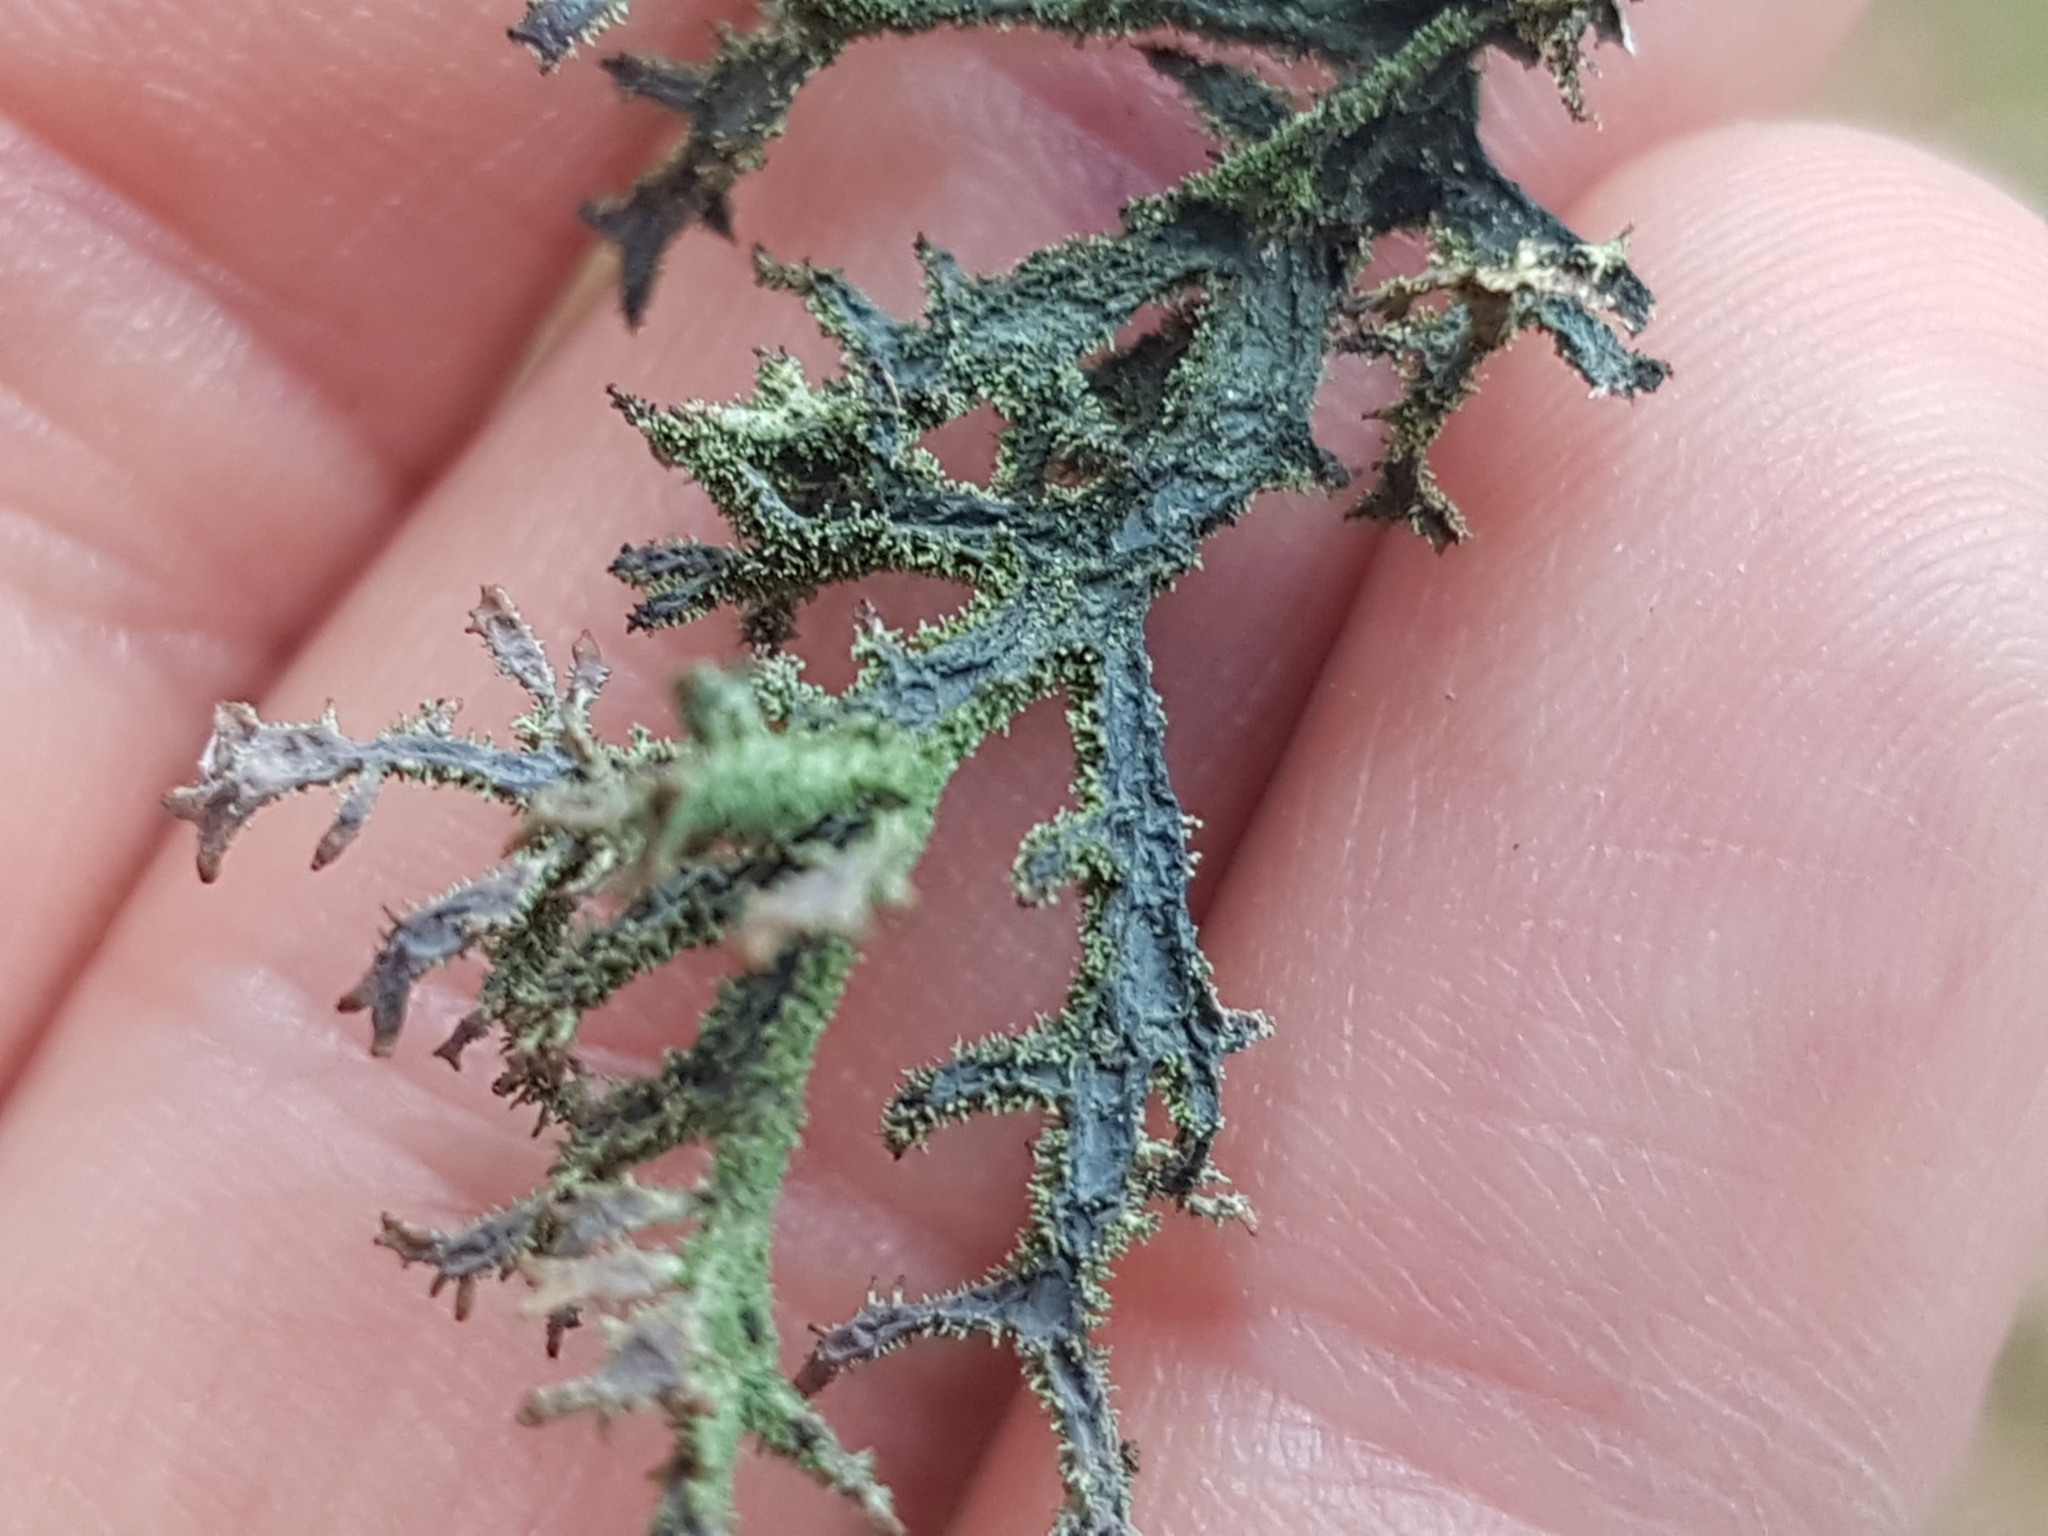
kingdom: Fungi
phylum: Ascomycota
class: Lecanoromycetes
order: Lecanorales
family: Parmeliaceae
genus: Pseudevernia
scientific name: Pseudevernia furfuracea
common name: Tree moss
